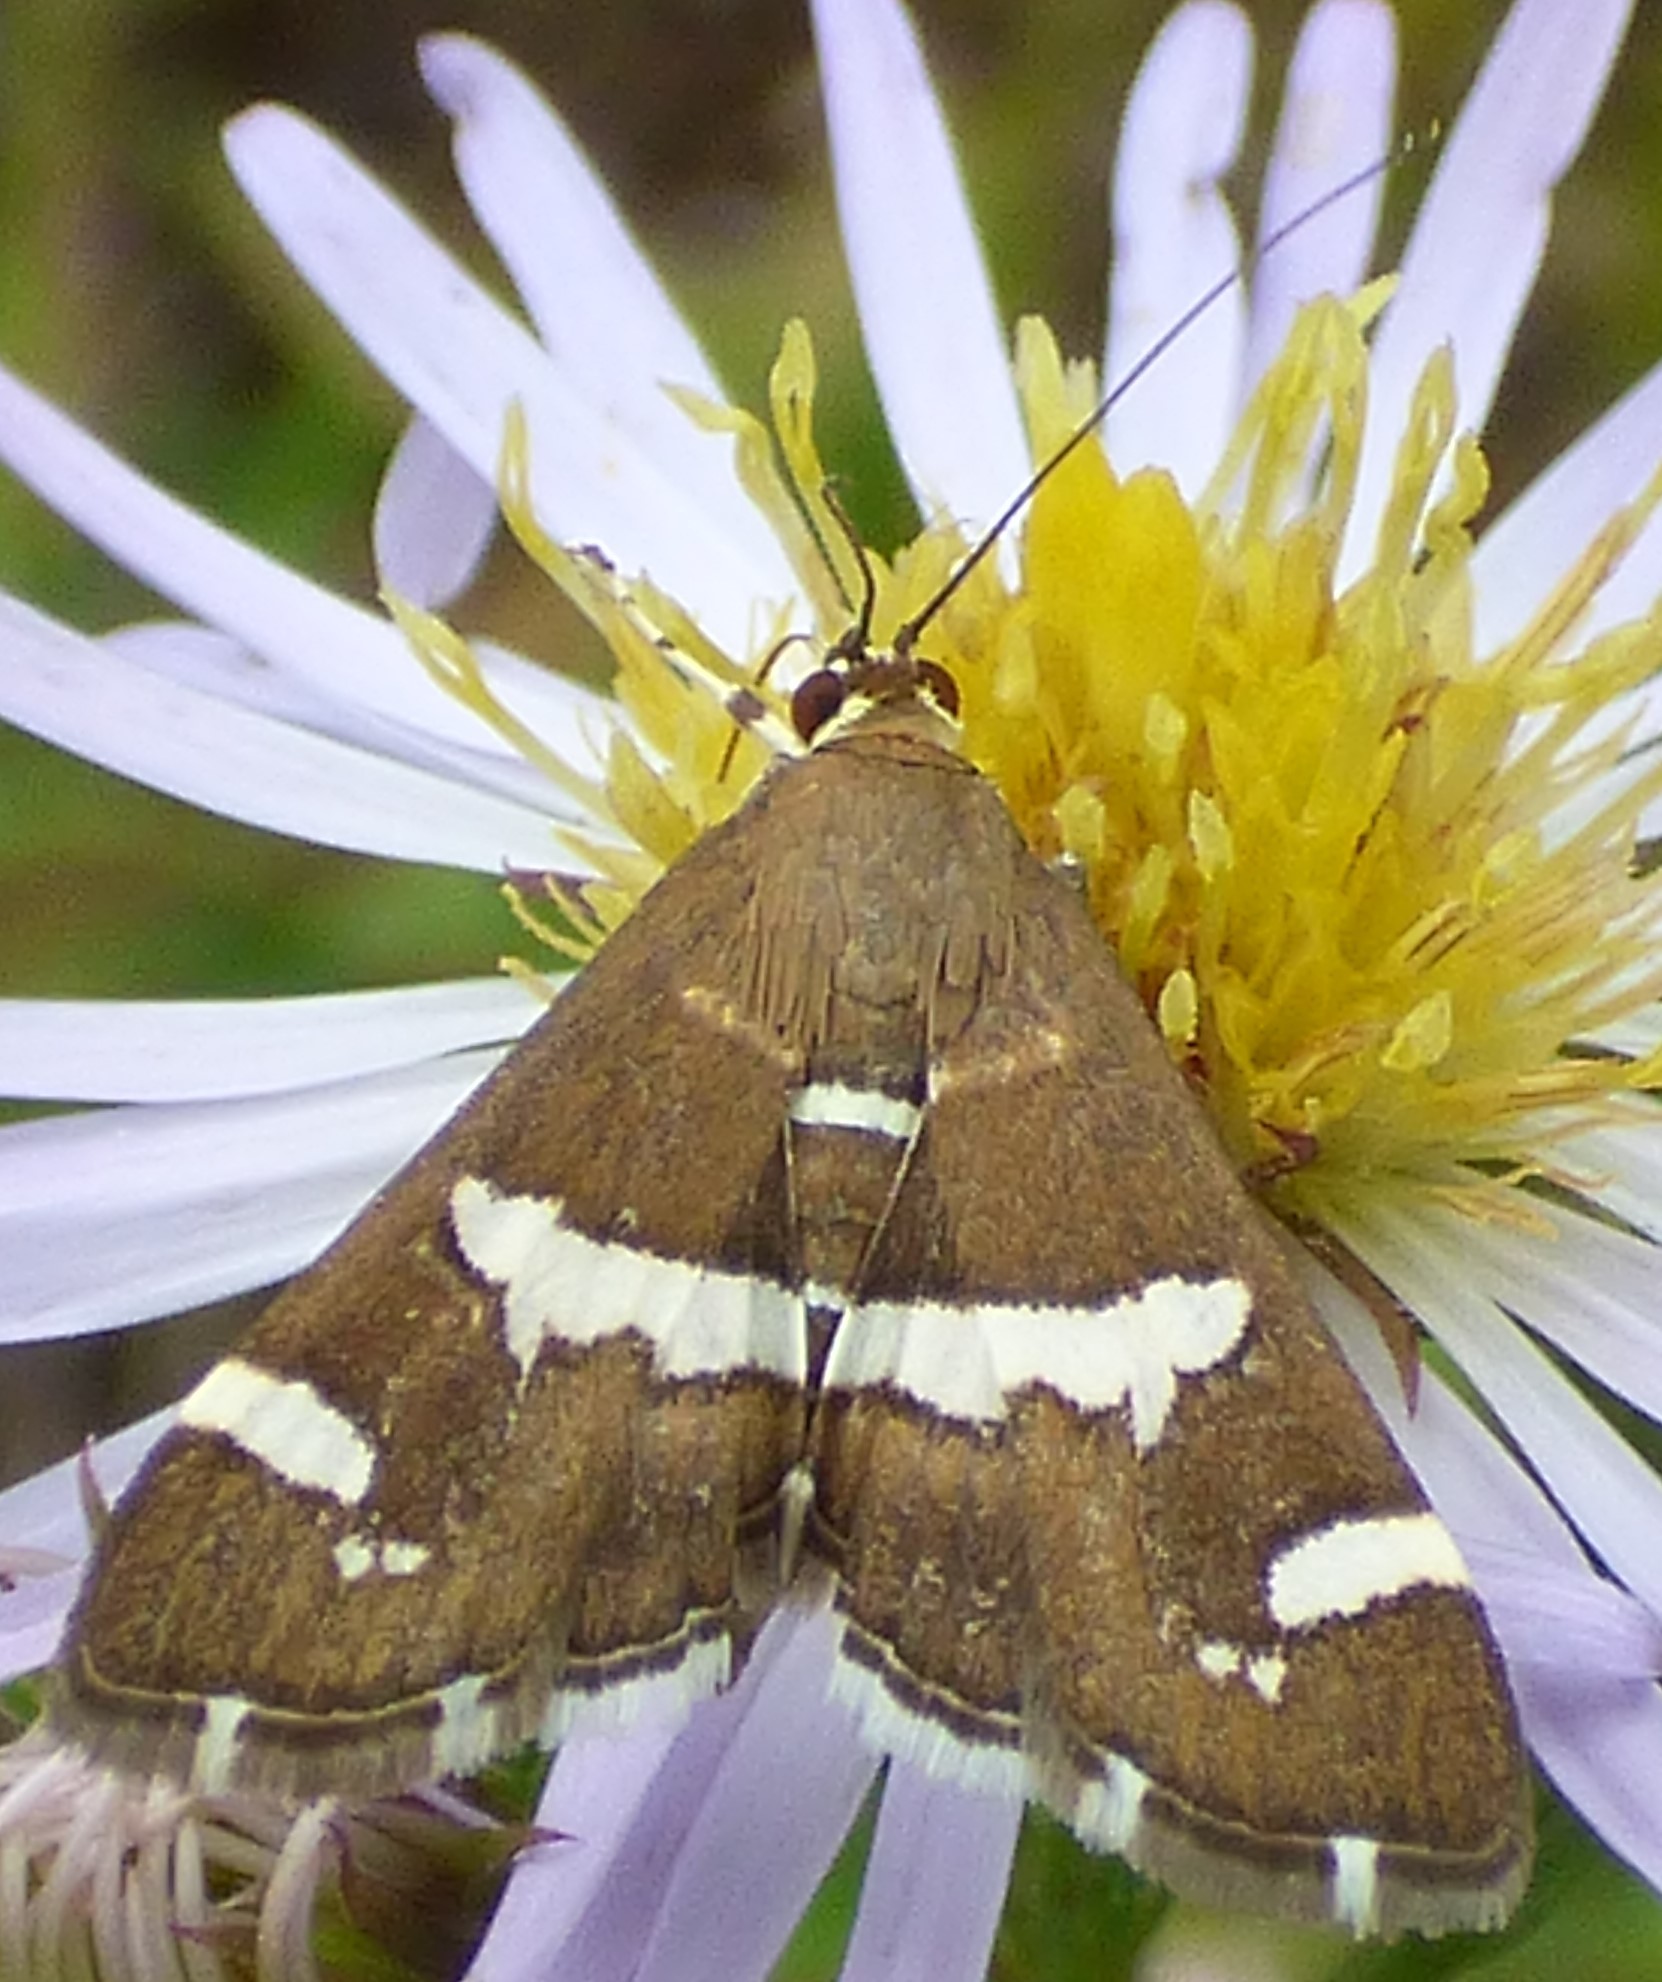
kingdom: Animalia
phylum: Arthropoda
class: Insecta
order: Lepidoptera
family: Crambidae
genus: Spoladea
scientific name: Spoladea recurvalis
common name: Beet webworm moth
